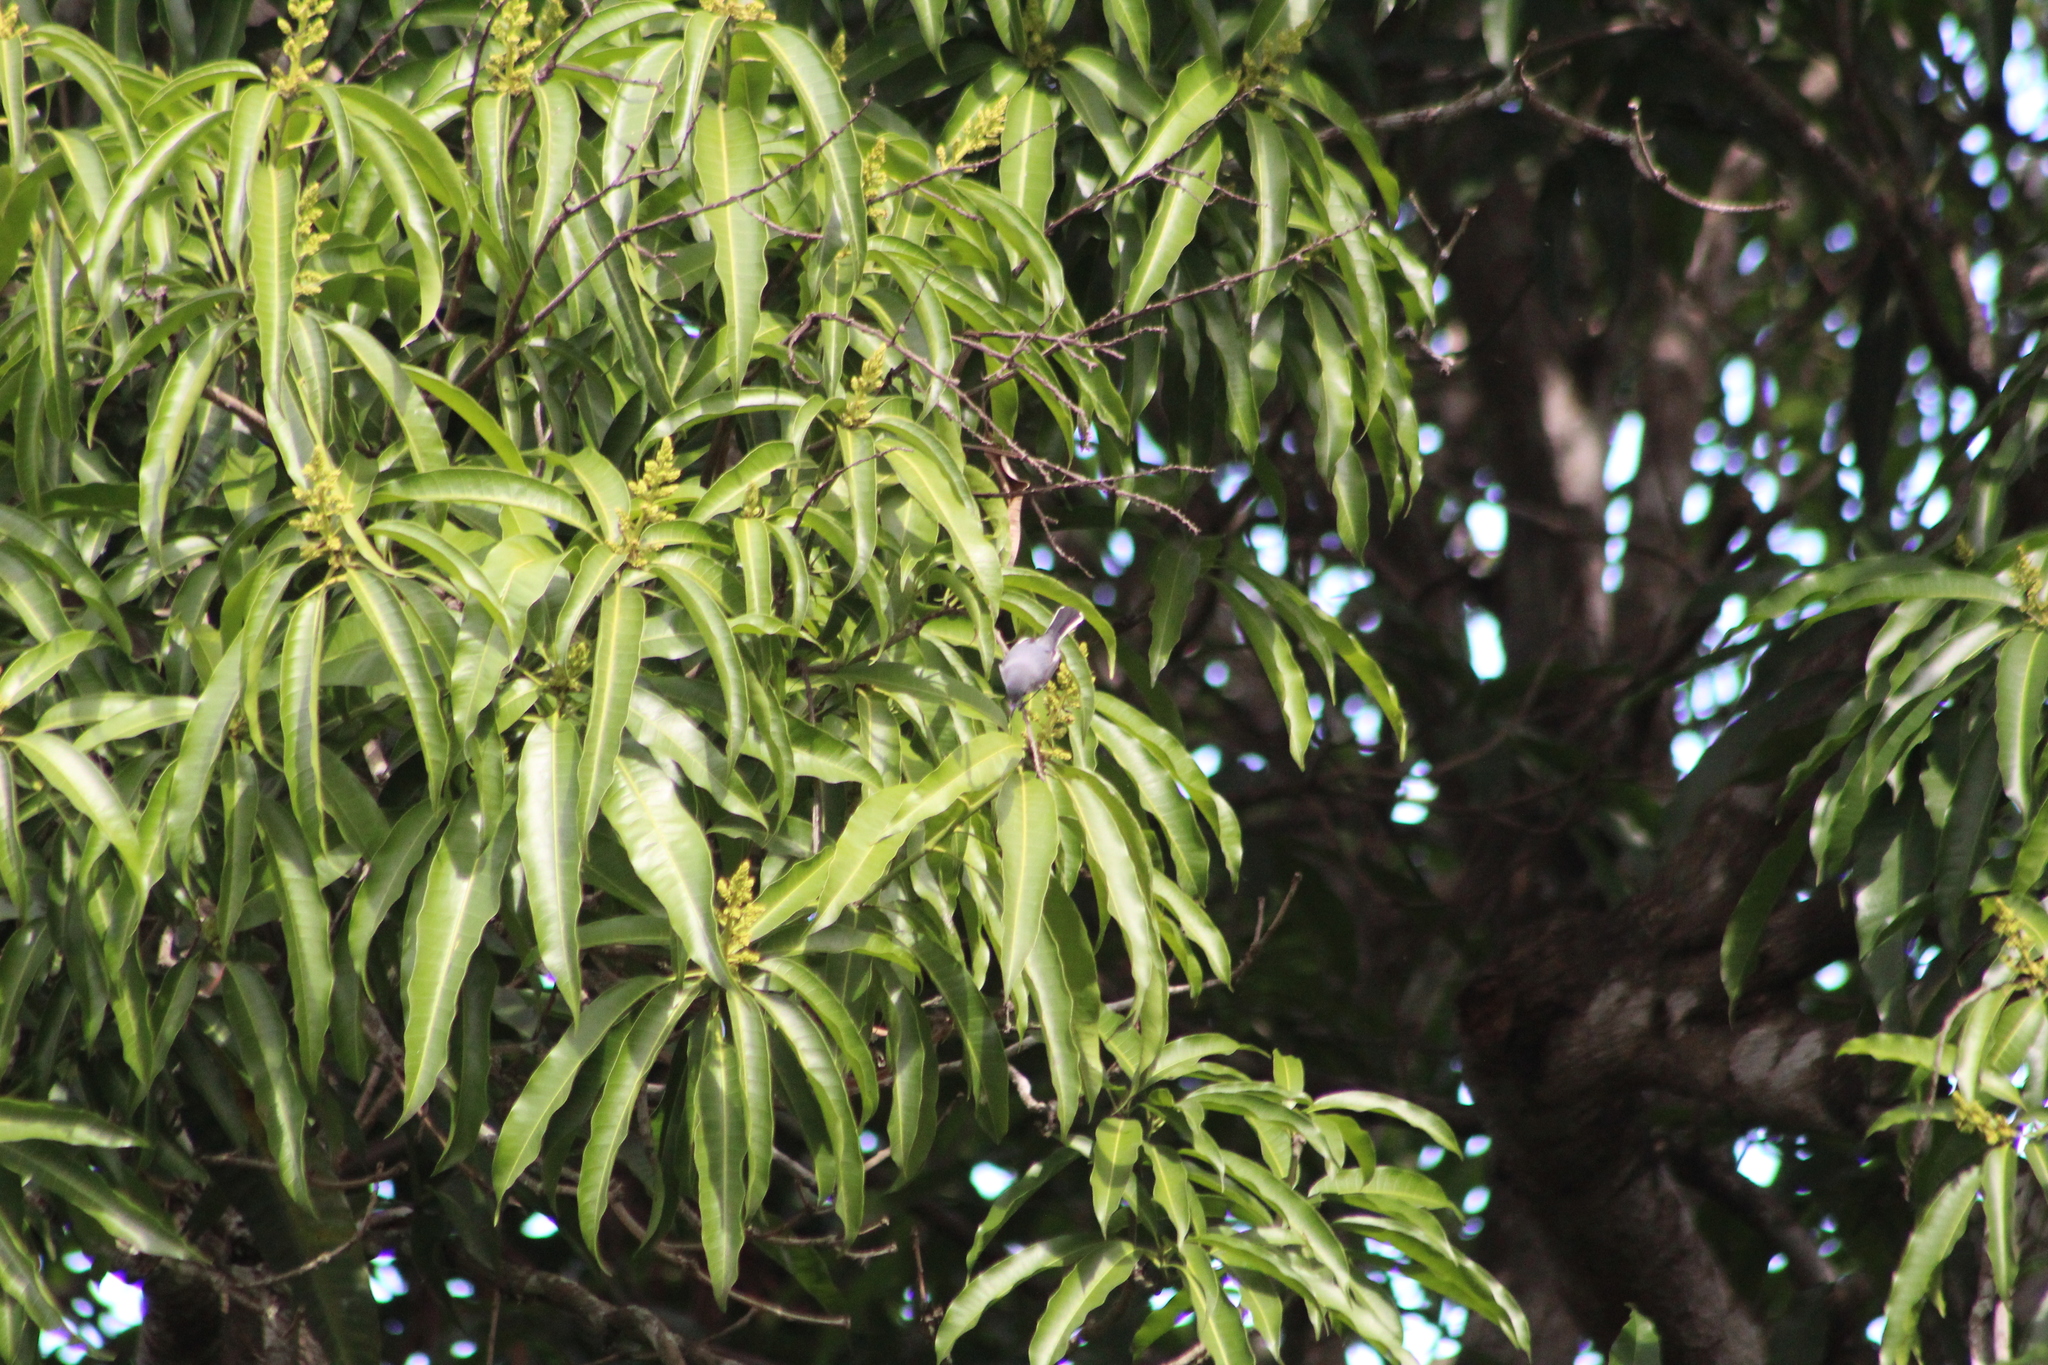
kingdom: Animalia
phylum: Chordata
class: Aves
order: Passeriformes
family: Polioptilidae
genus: Polioptila
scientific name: Polioptila caerulea
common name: Blue-gray gnatcatcher
